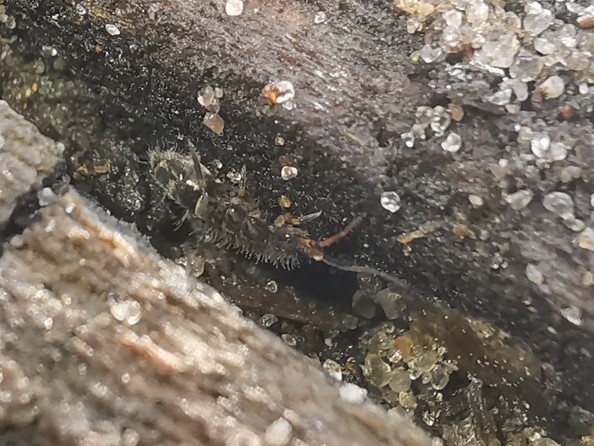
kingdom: Animalia
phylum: Arthropoda
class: Collembola
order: Entomobryomorpha
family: Orchesellidae
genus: Orchesella
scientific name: Orchesella cincta
